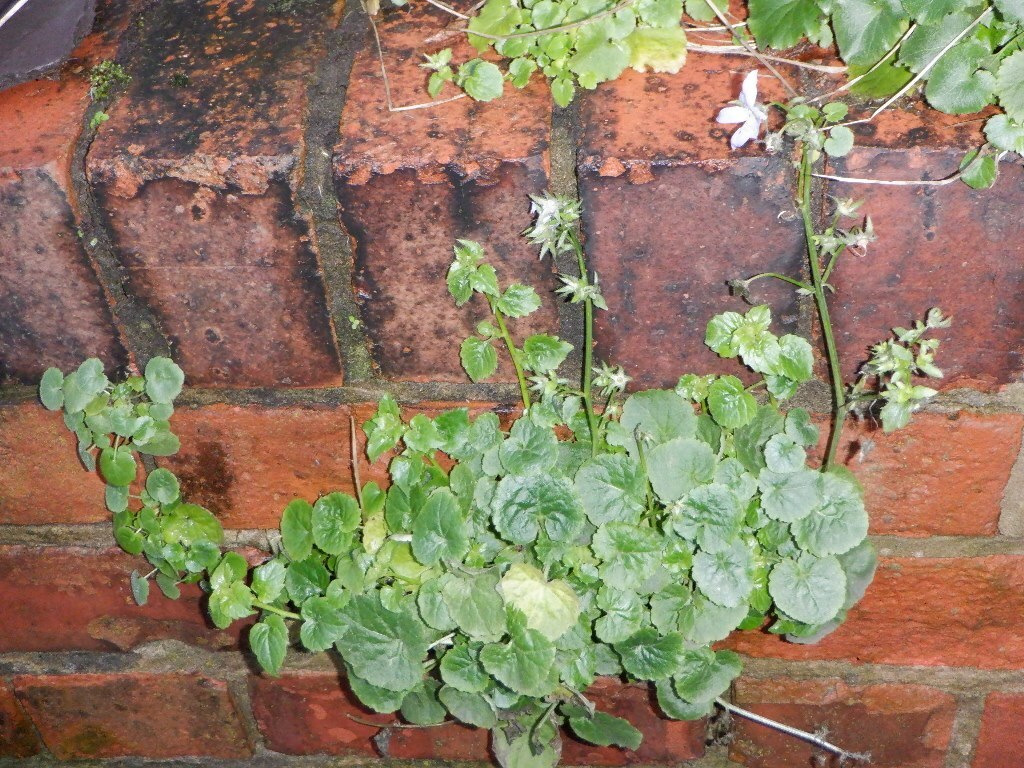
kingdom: Plantae
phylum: Tracheophyta
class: Magnoliopsida
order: Asterales
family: Campanulaceae
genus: Campanula
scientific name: Campanula poscharskyana
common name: Trailing bellflower
